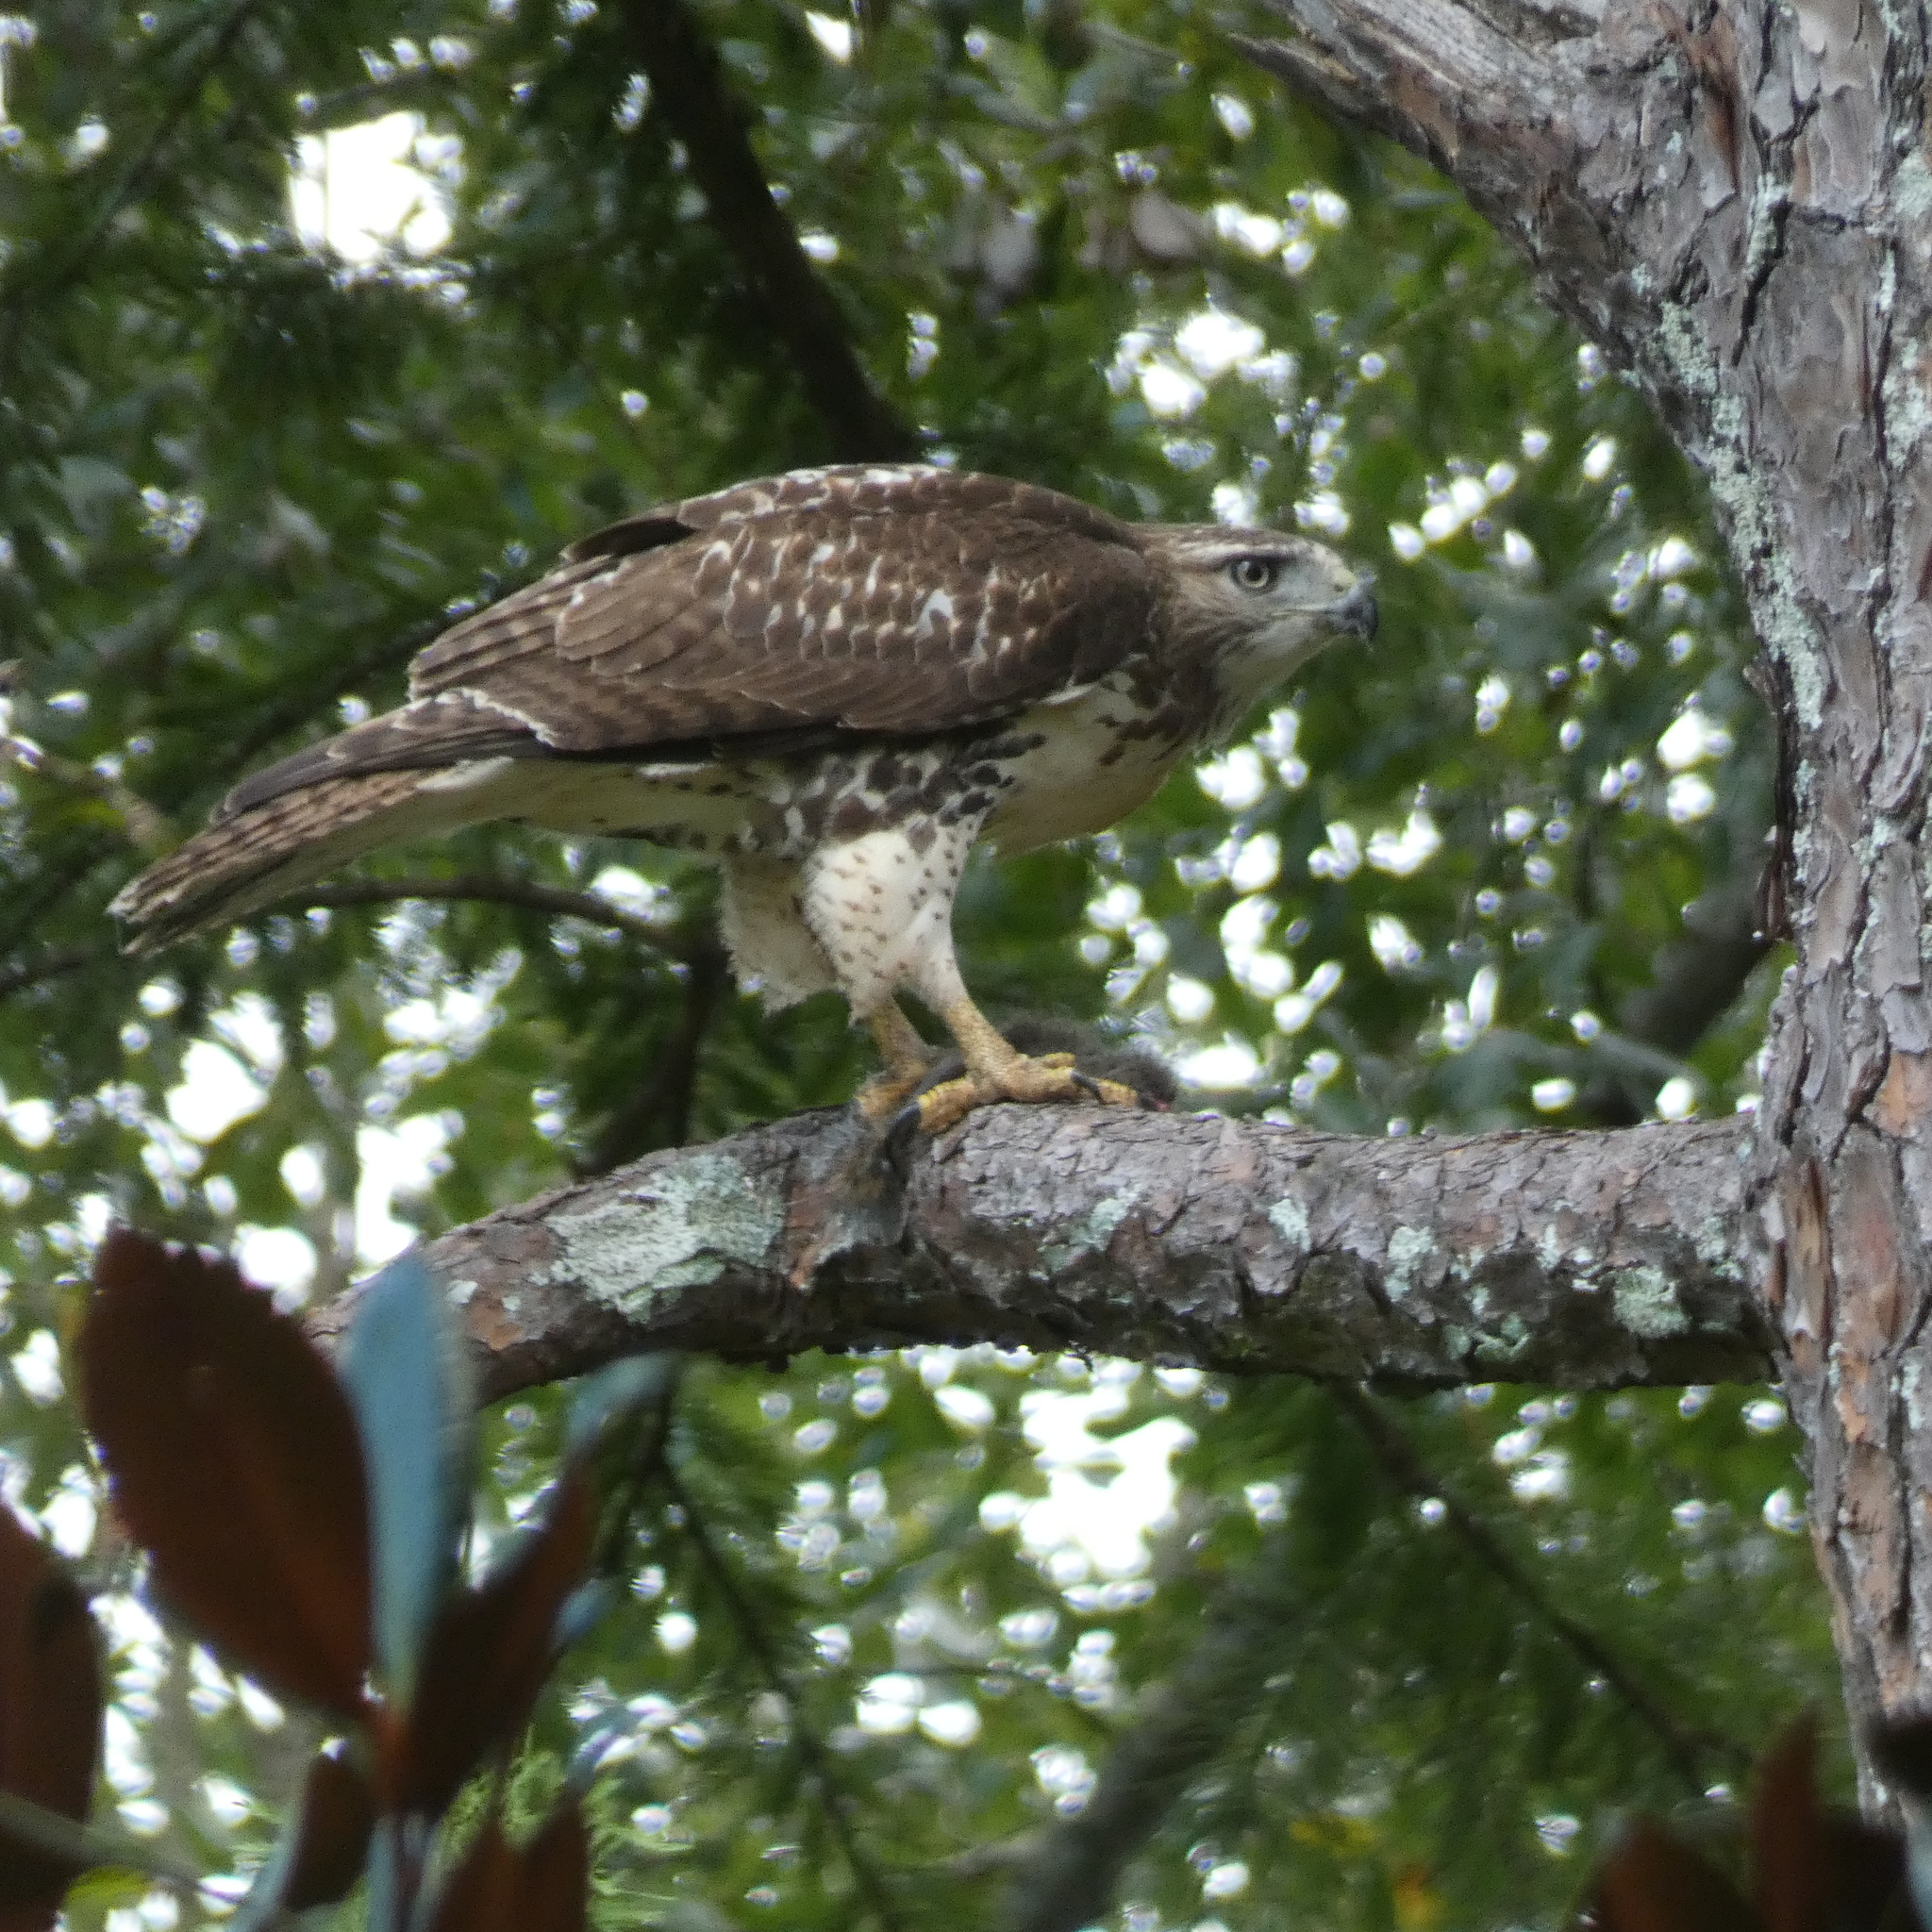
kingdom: Animalia
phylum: Chordata
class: Aves
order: Accipitriformes
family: Accipitridae
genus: Buteo
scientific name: Buteo jamaicensis
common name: Red-tailed hawk
